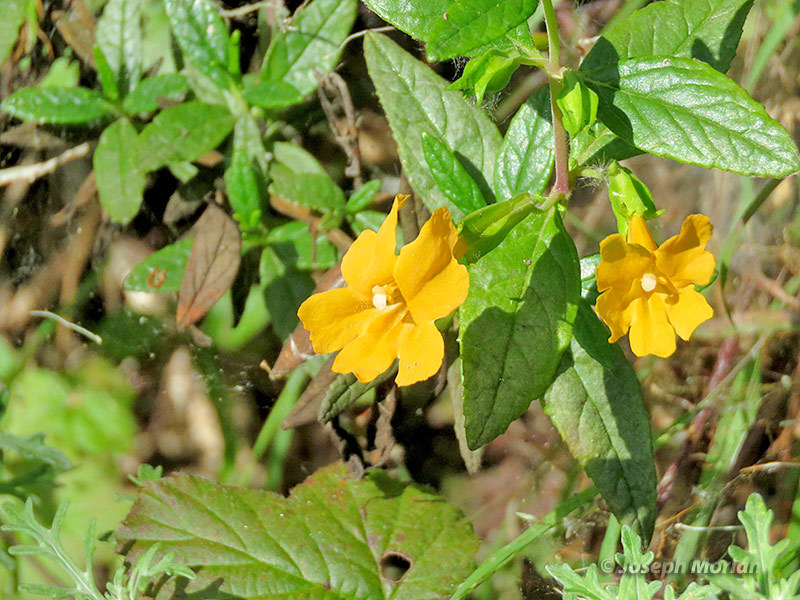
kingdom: Plantae
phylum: Tracheophyta
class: Magnoliopsida
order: Lamiales
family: Phrymaceae
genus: Diplacus
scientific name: Diplacus aurantiacus
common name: Bush monkey-flower
